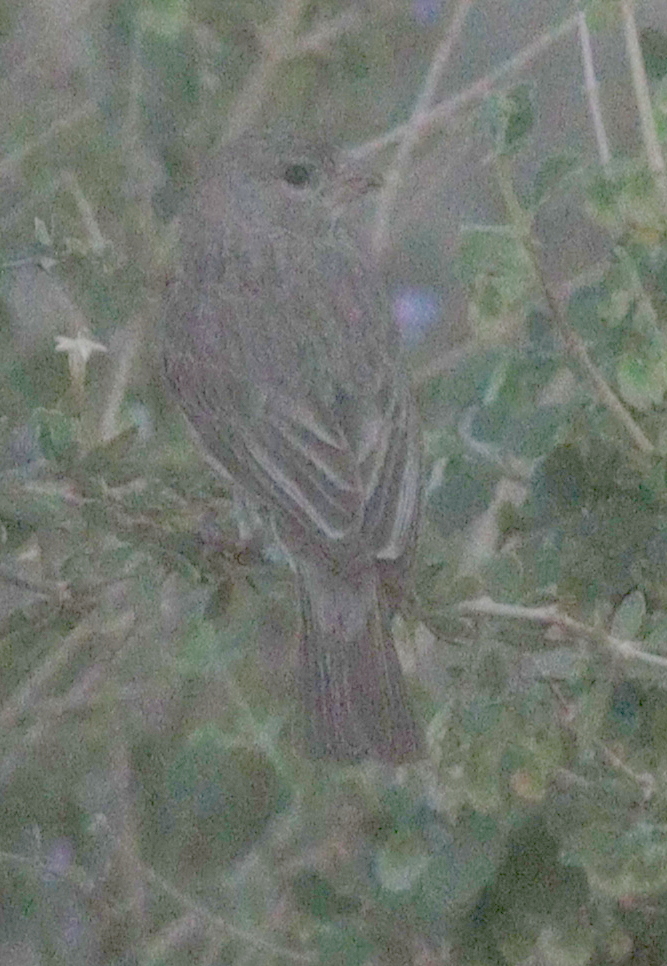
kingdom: Animalia
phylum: Chordata
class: Aves
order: Passeriformes
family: Fringillidae
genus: Crithagra
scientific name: Crithagra rothschildi
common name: Arabian serin
